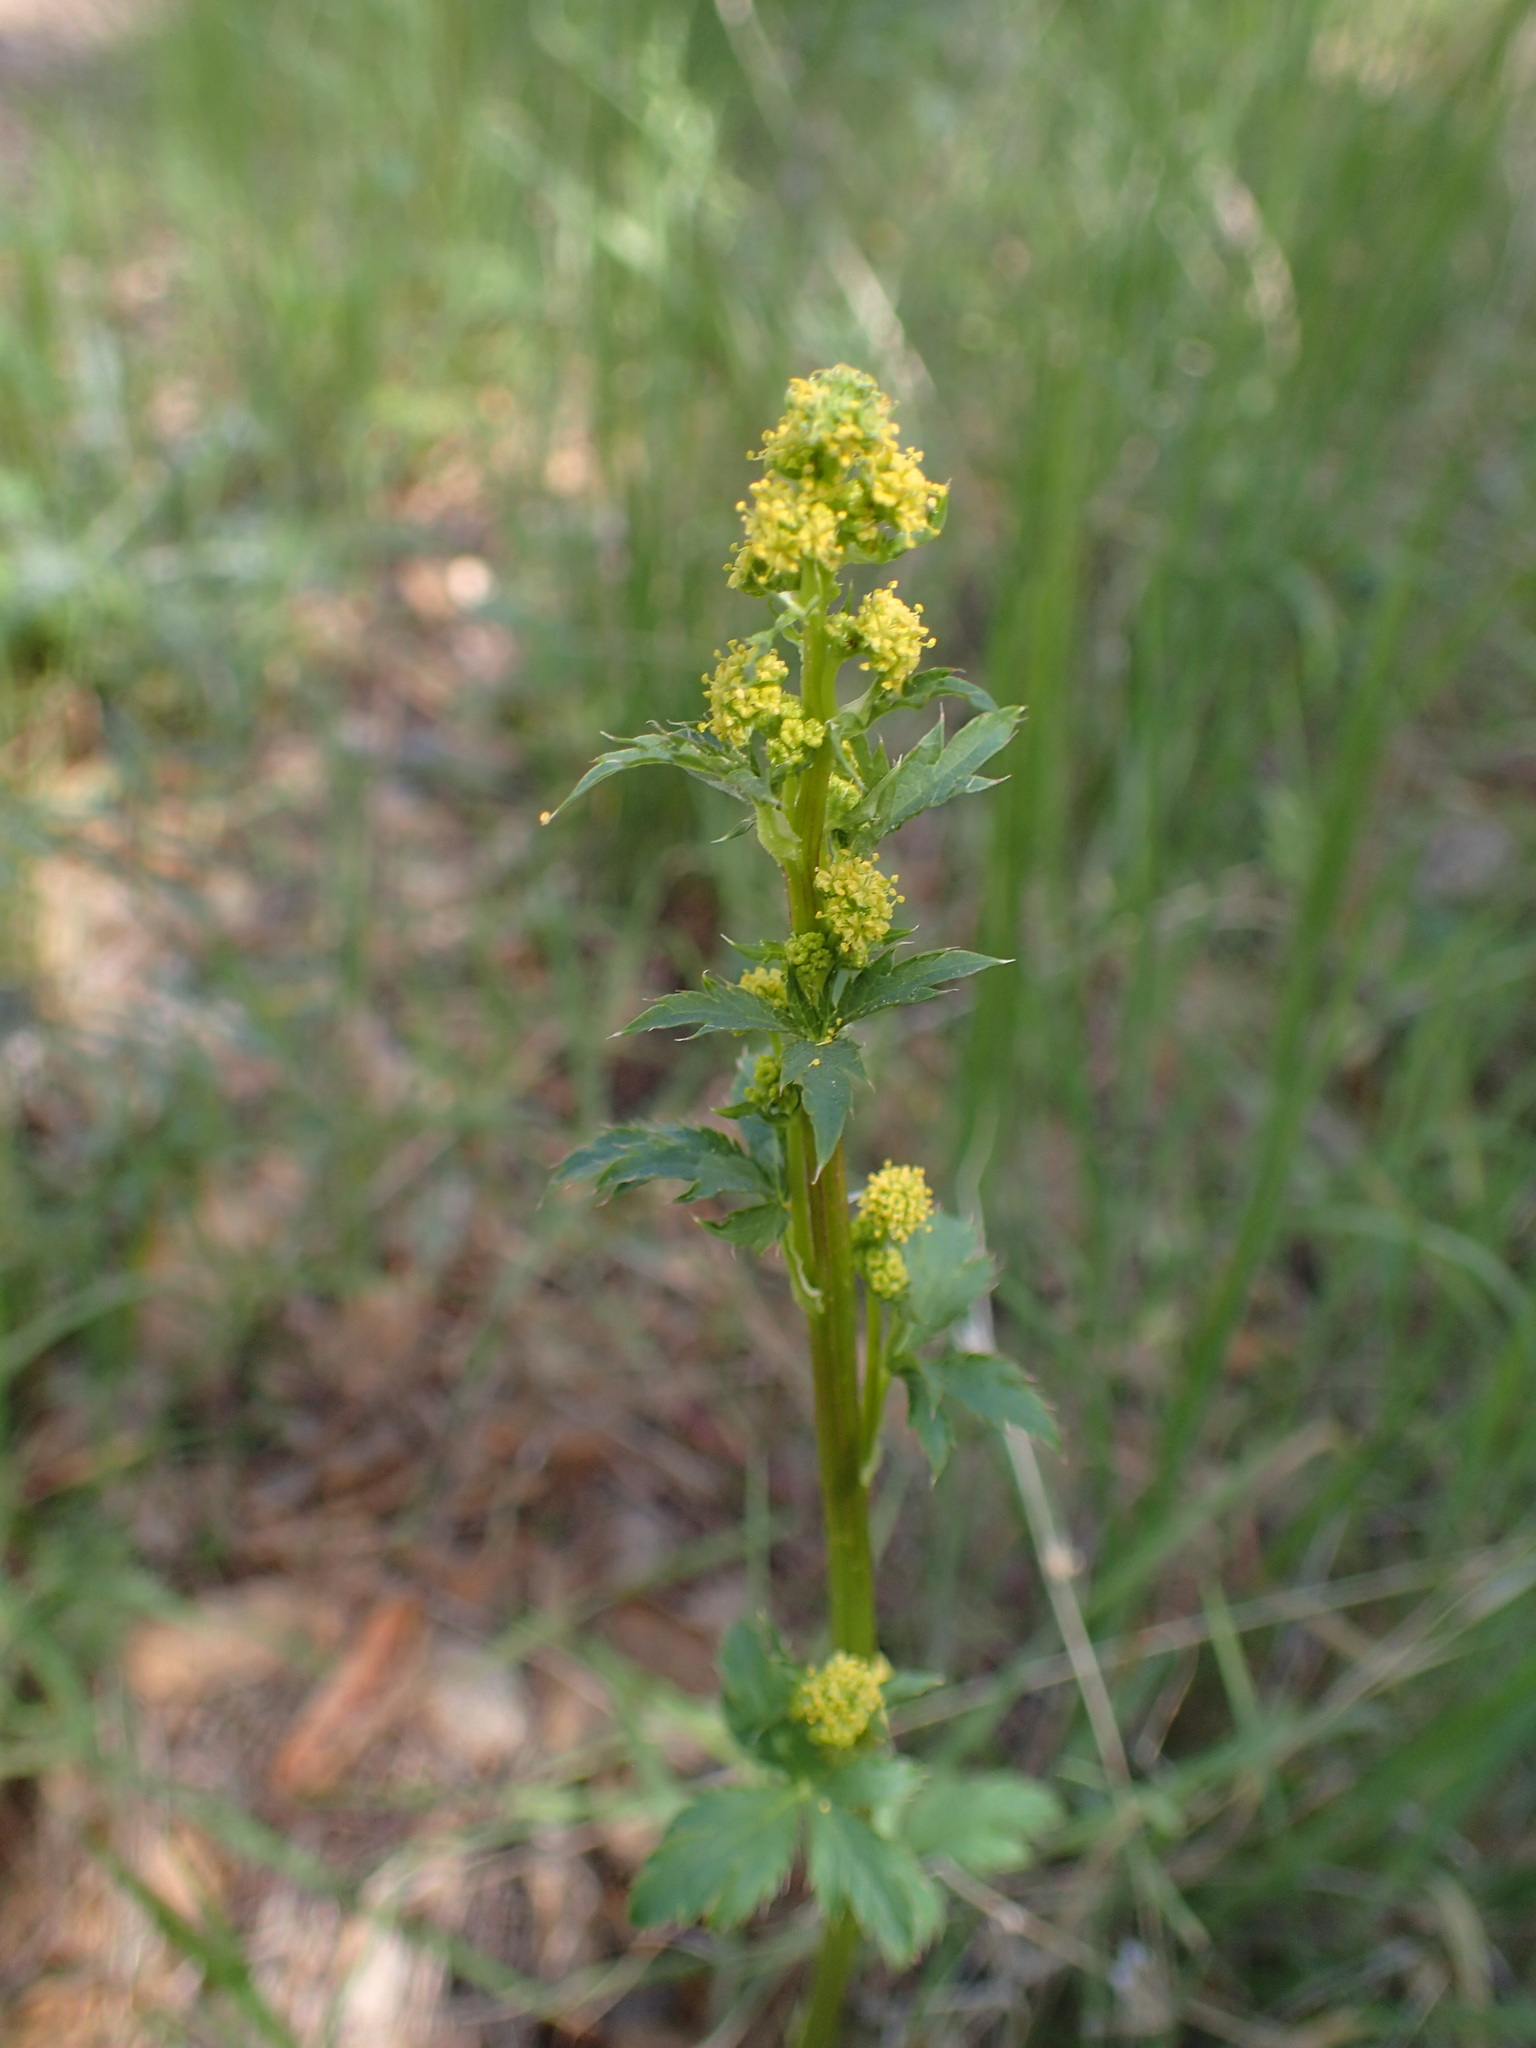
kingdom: Plantae
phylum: Tracheophyta
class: Magnoliopsida
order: Apiales
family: Apiaceae
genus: Sanicula
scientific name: Sanicula crassicaulis
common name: Western snakeroot
